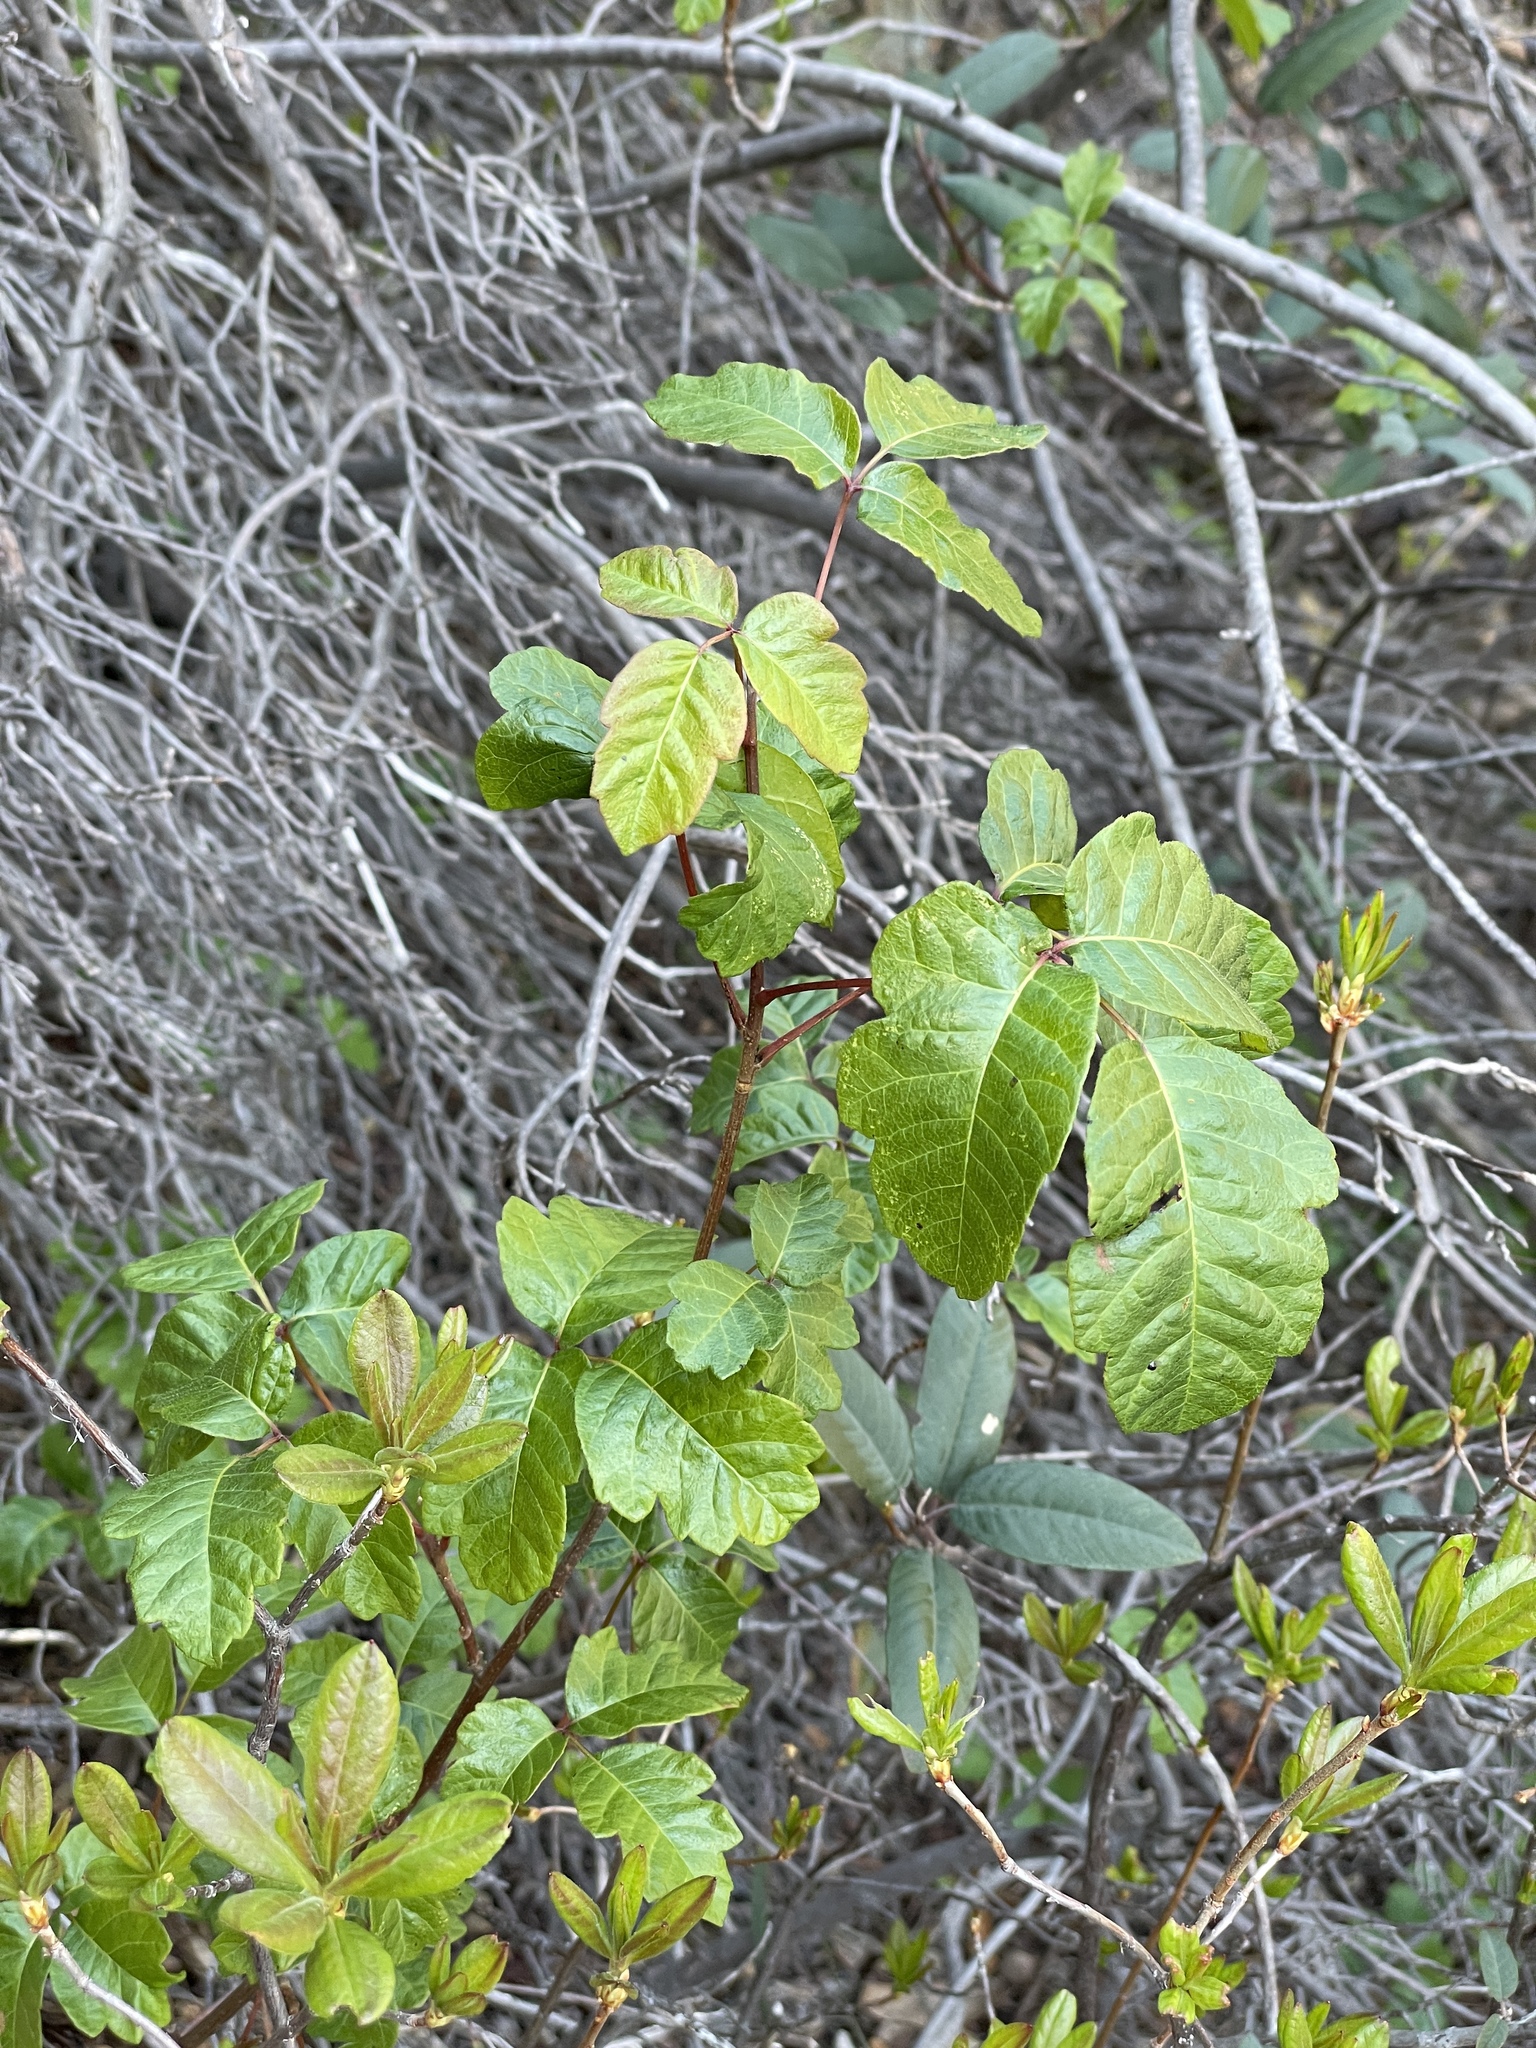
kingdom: Plantae
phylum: Tracheophyta
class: Magnoliopsida
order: Sapindales
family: Anacardiaceae
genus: Toxicodendron
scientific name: Toxicodendron diversilobum
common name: Pacific poison-oak
